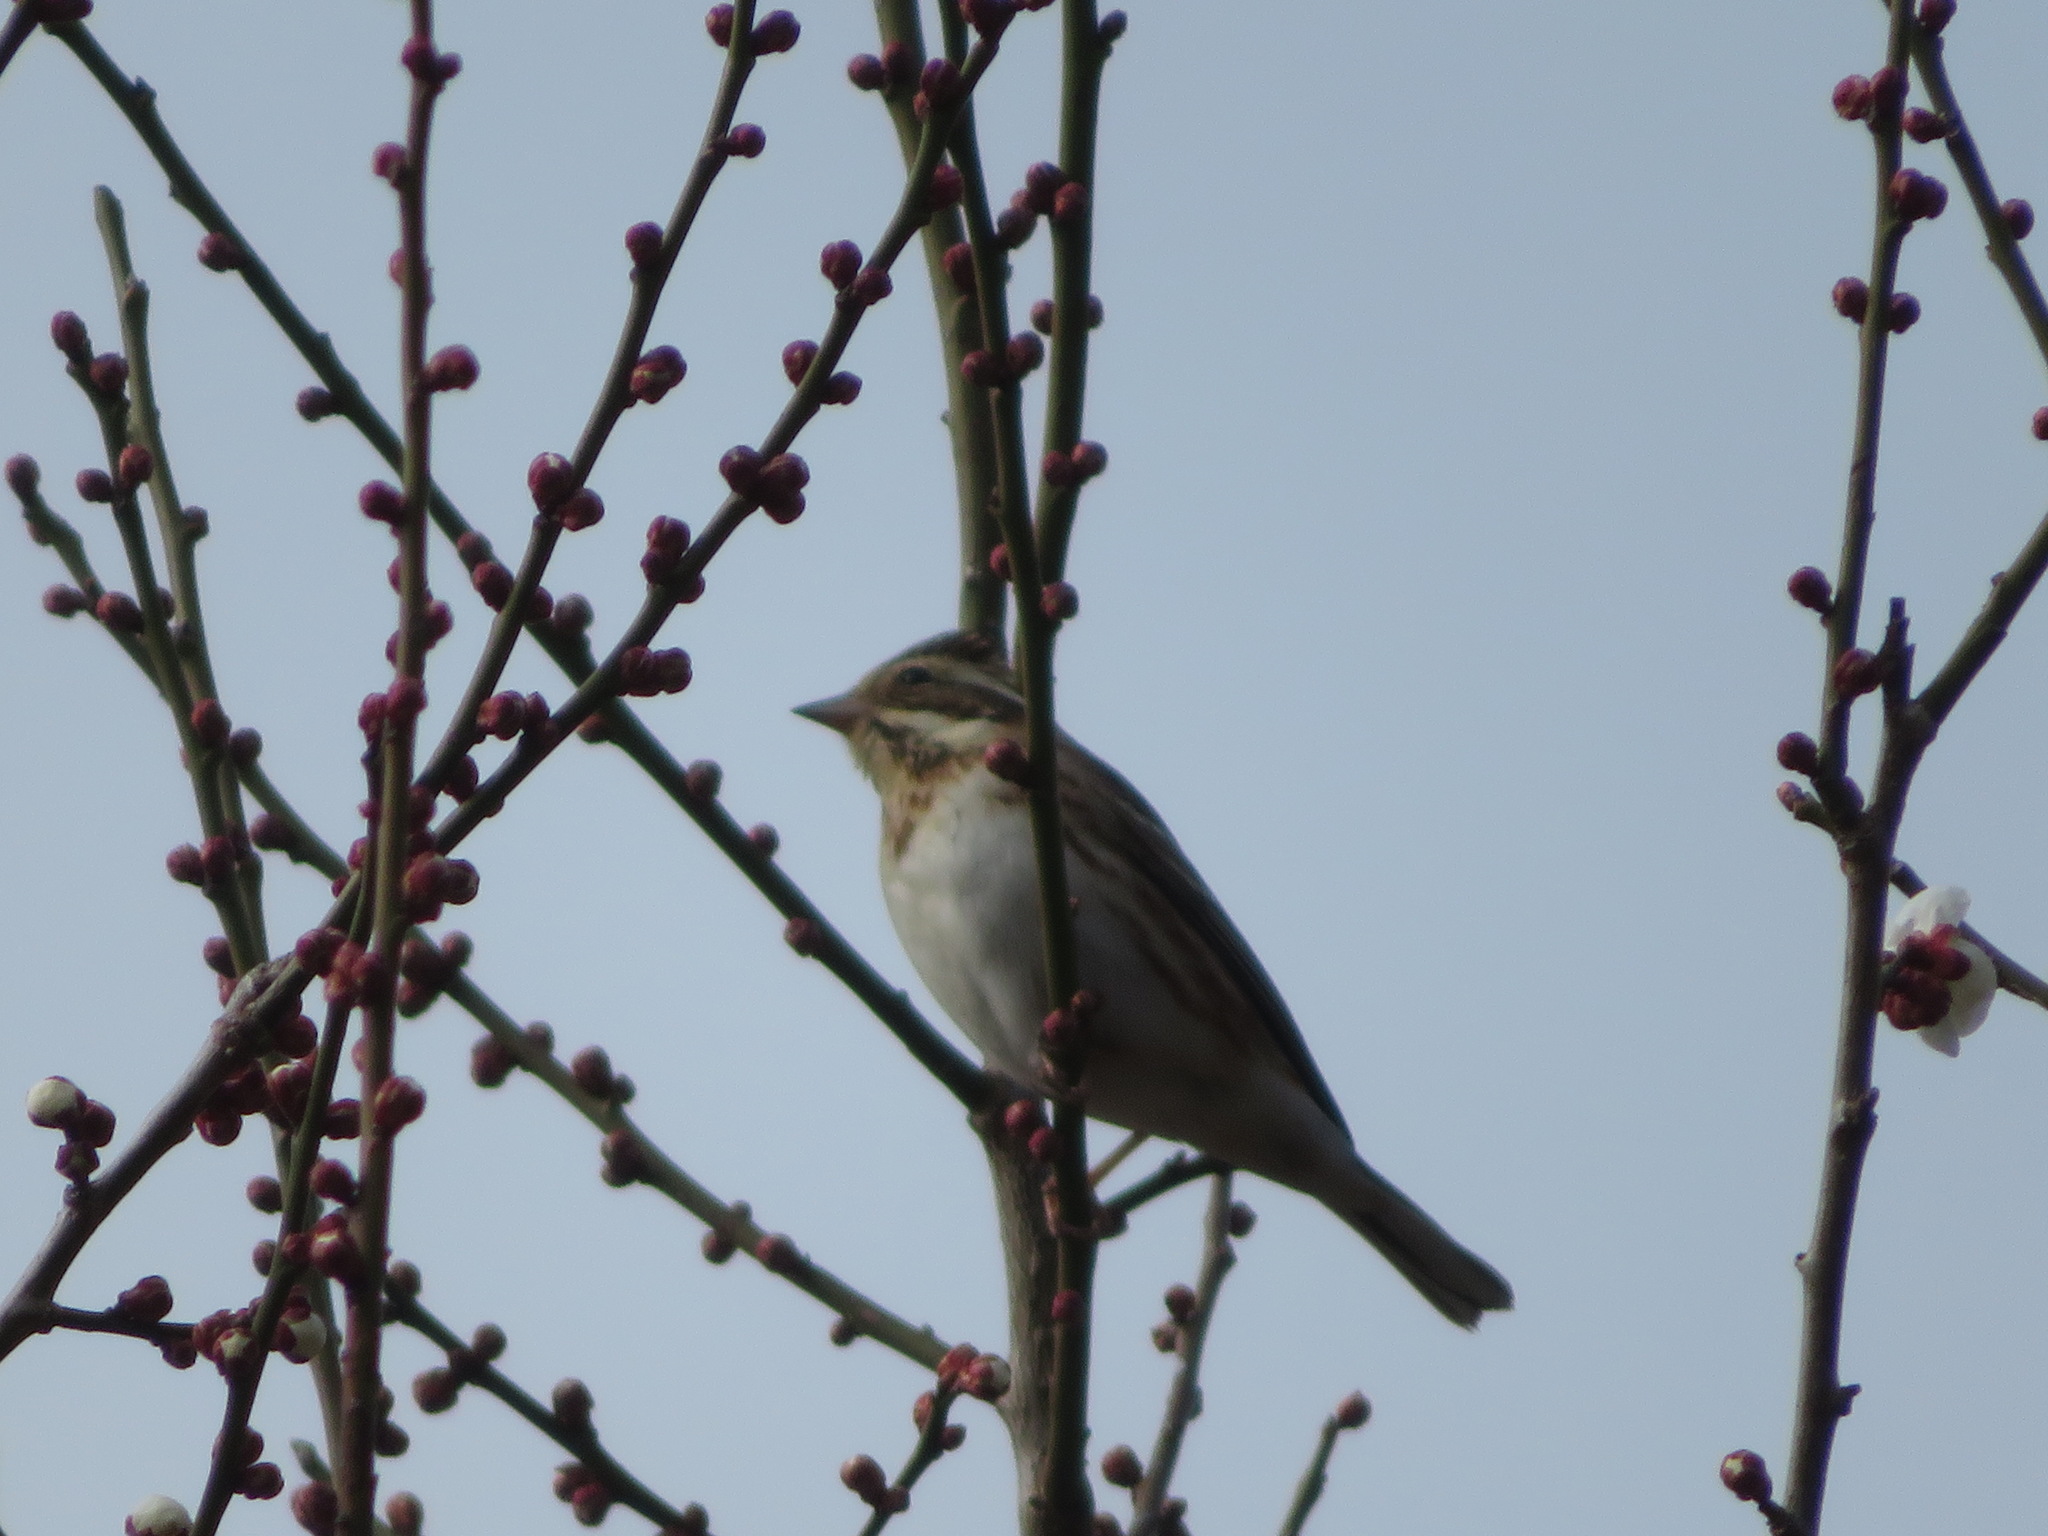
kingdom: Animalia
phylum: Chordata
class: Aves
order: Passeriformes
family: Emberizidae
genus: Emberiza
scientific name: Emberiza rustica
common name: Rustic bunting
